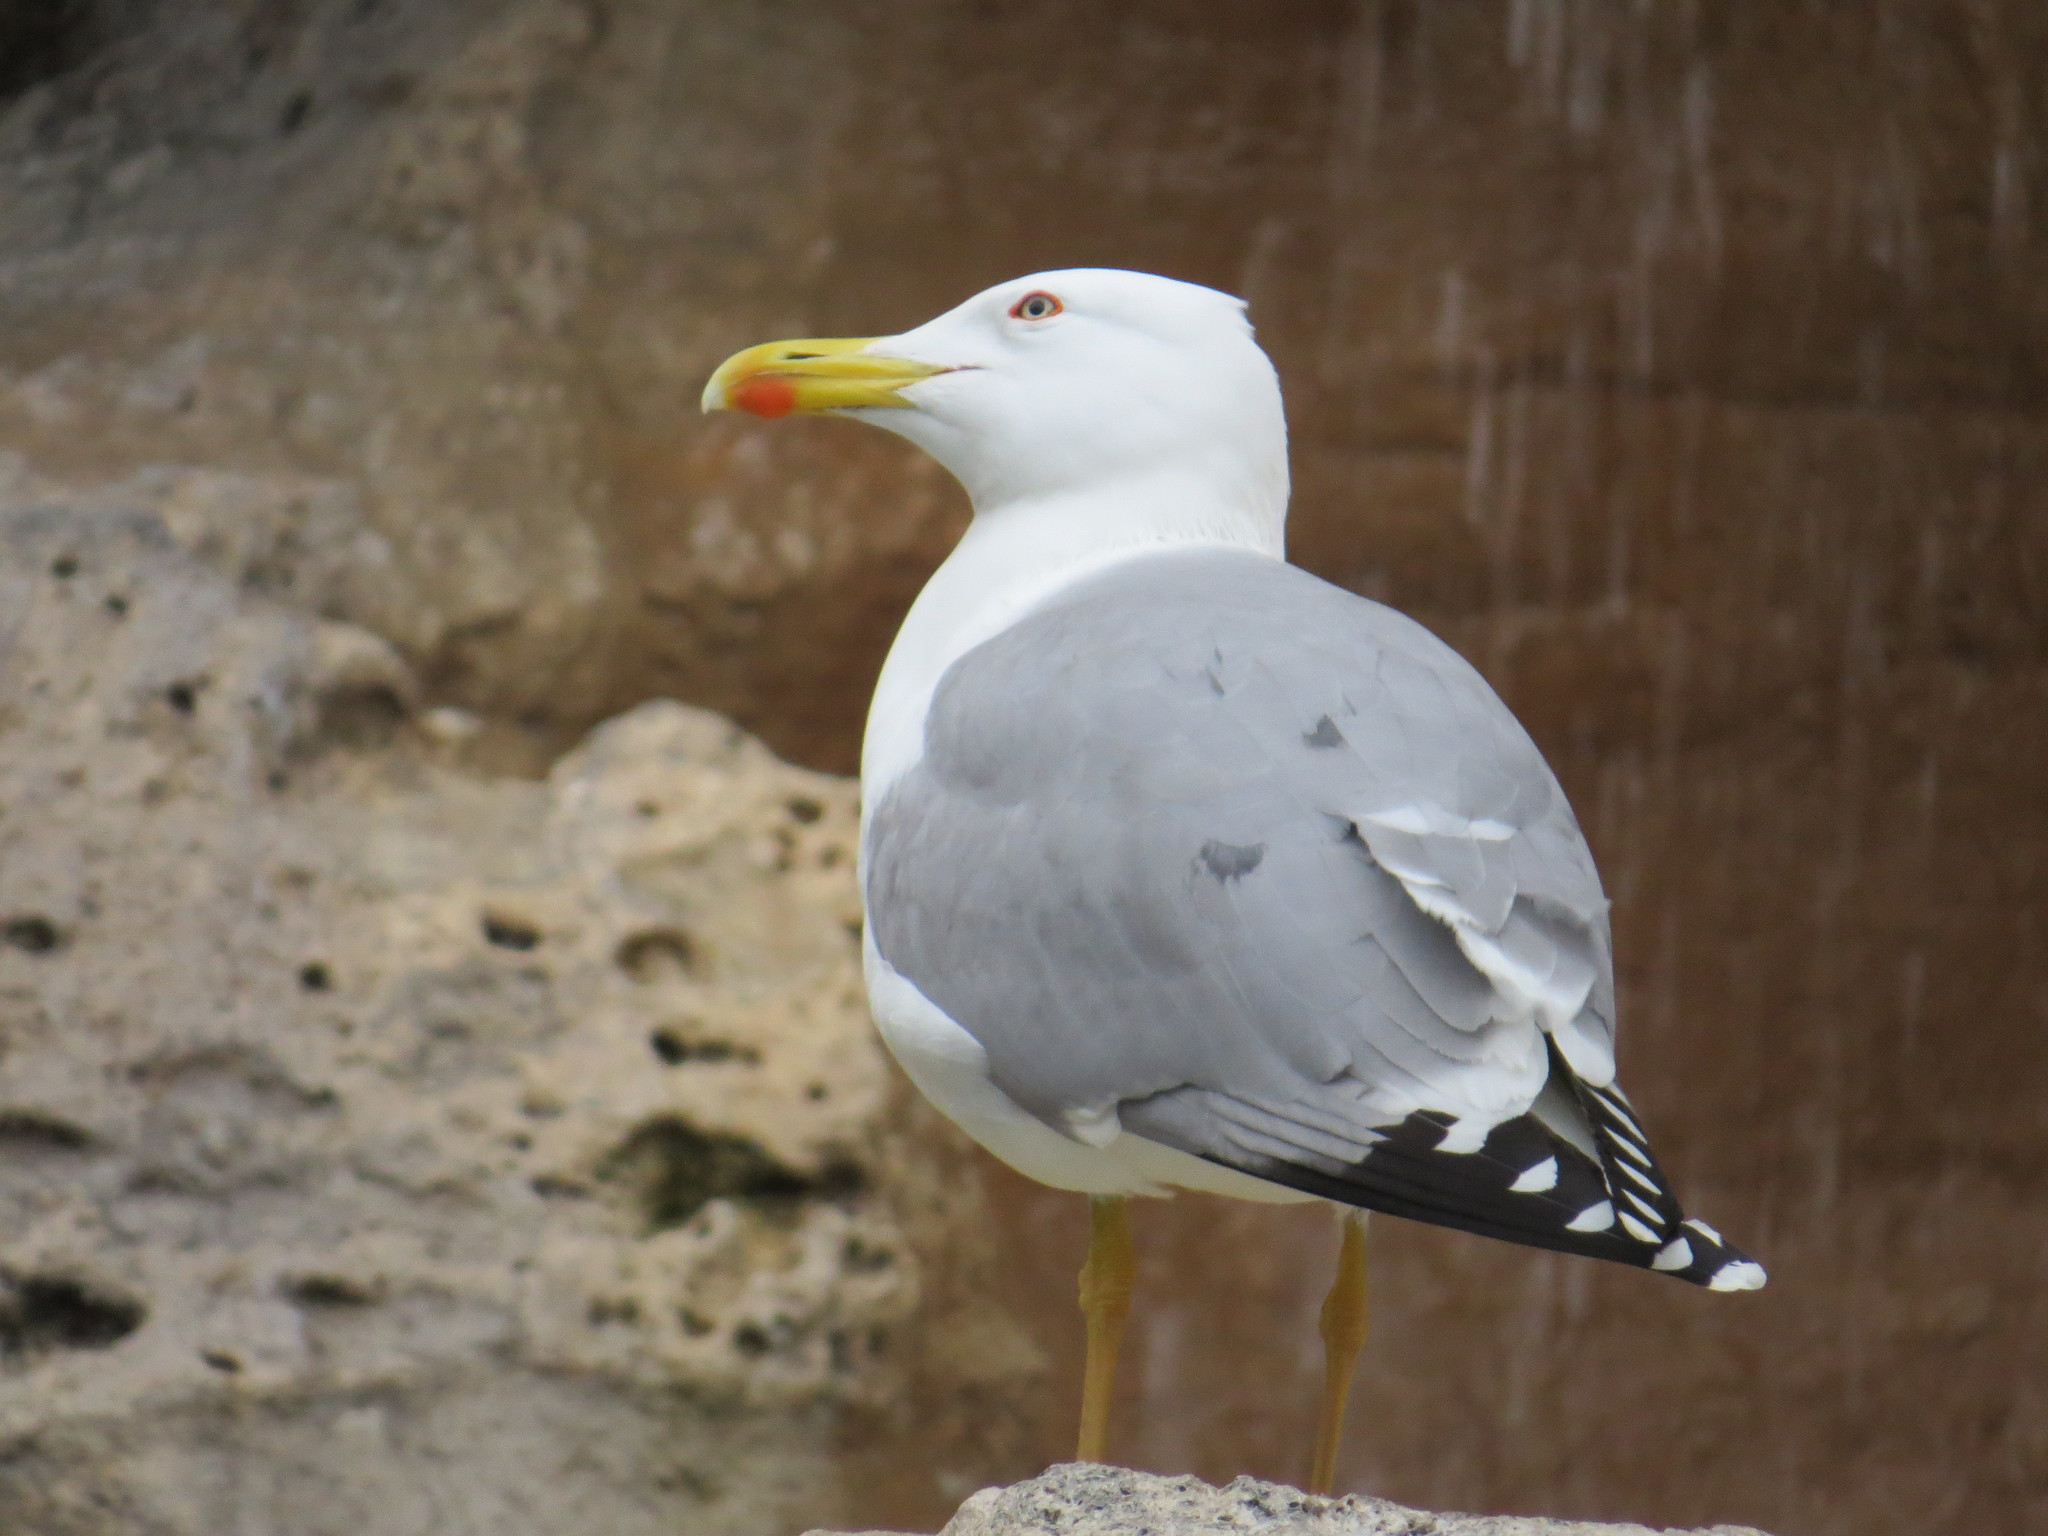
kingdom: Animalia
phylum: Chordata
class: Aves
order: Charadriiformes
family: Laridae
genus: Larus
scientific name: Larus michahellis
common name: Yellow-legged gull
